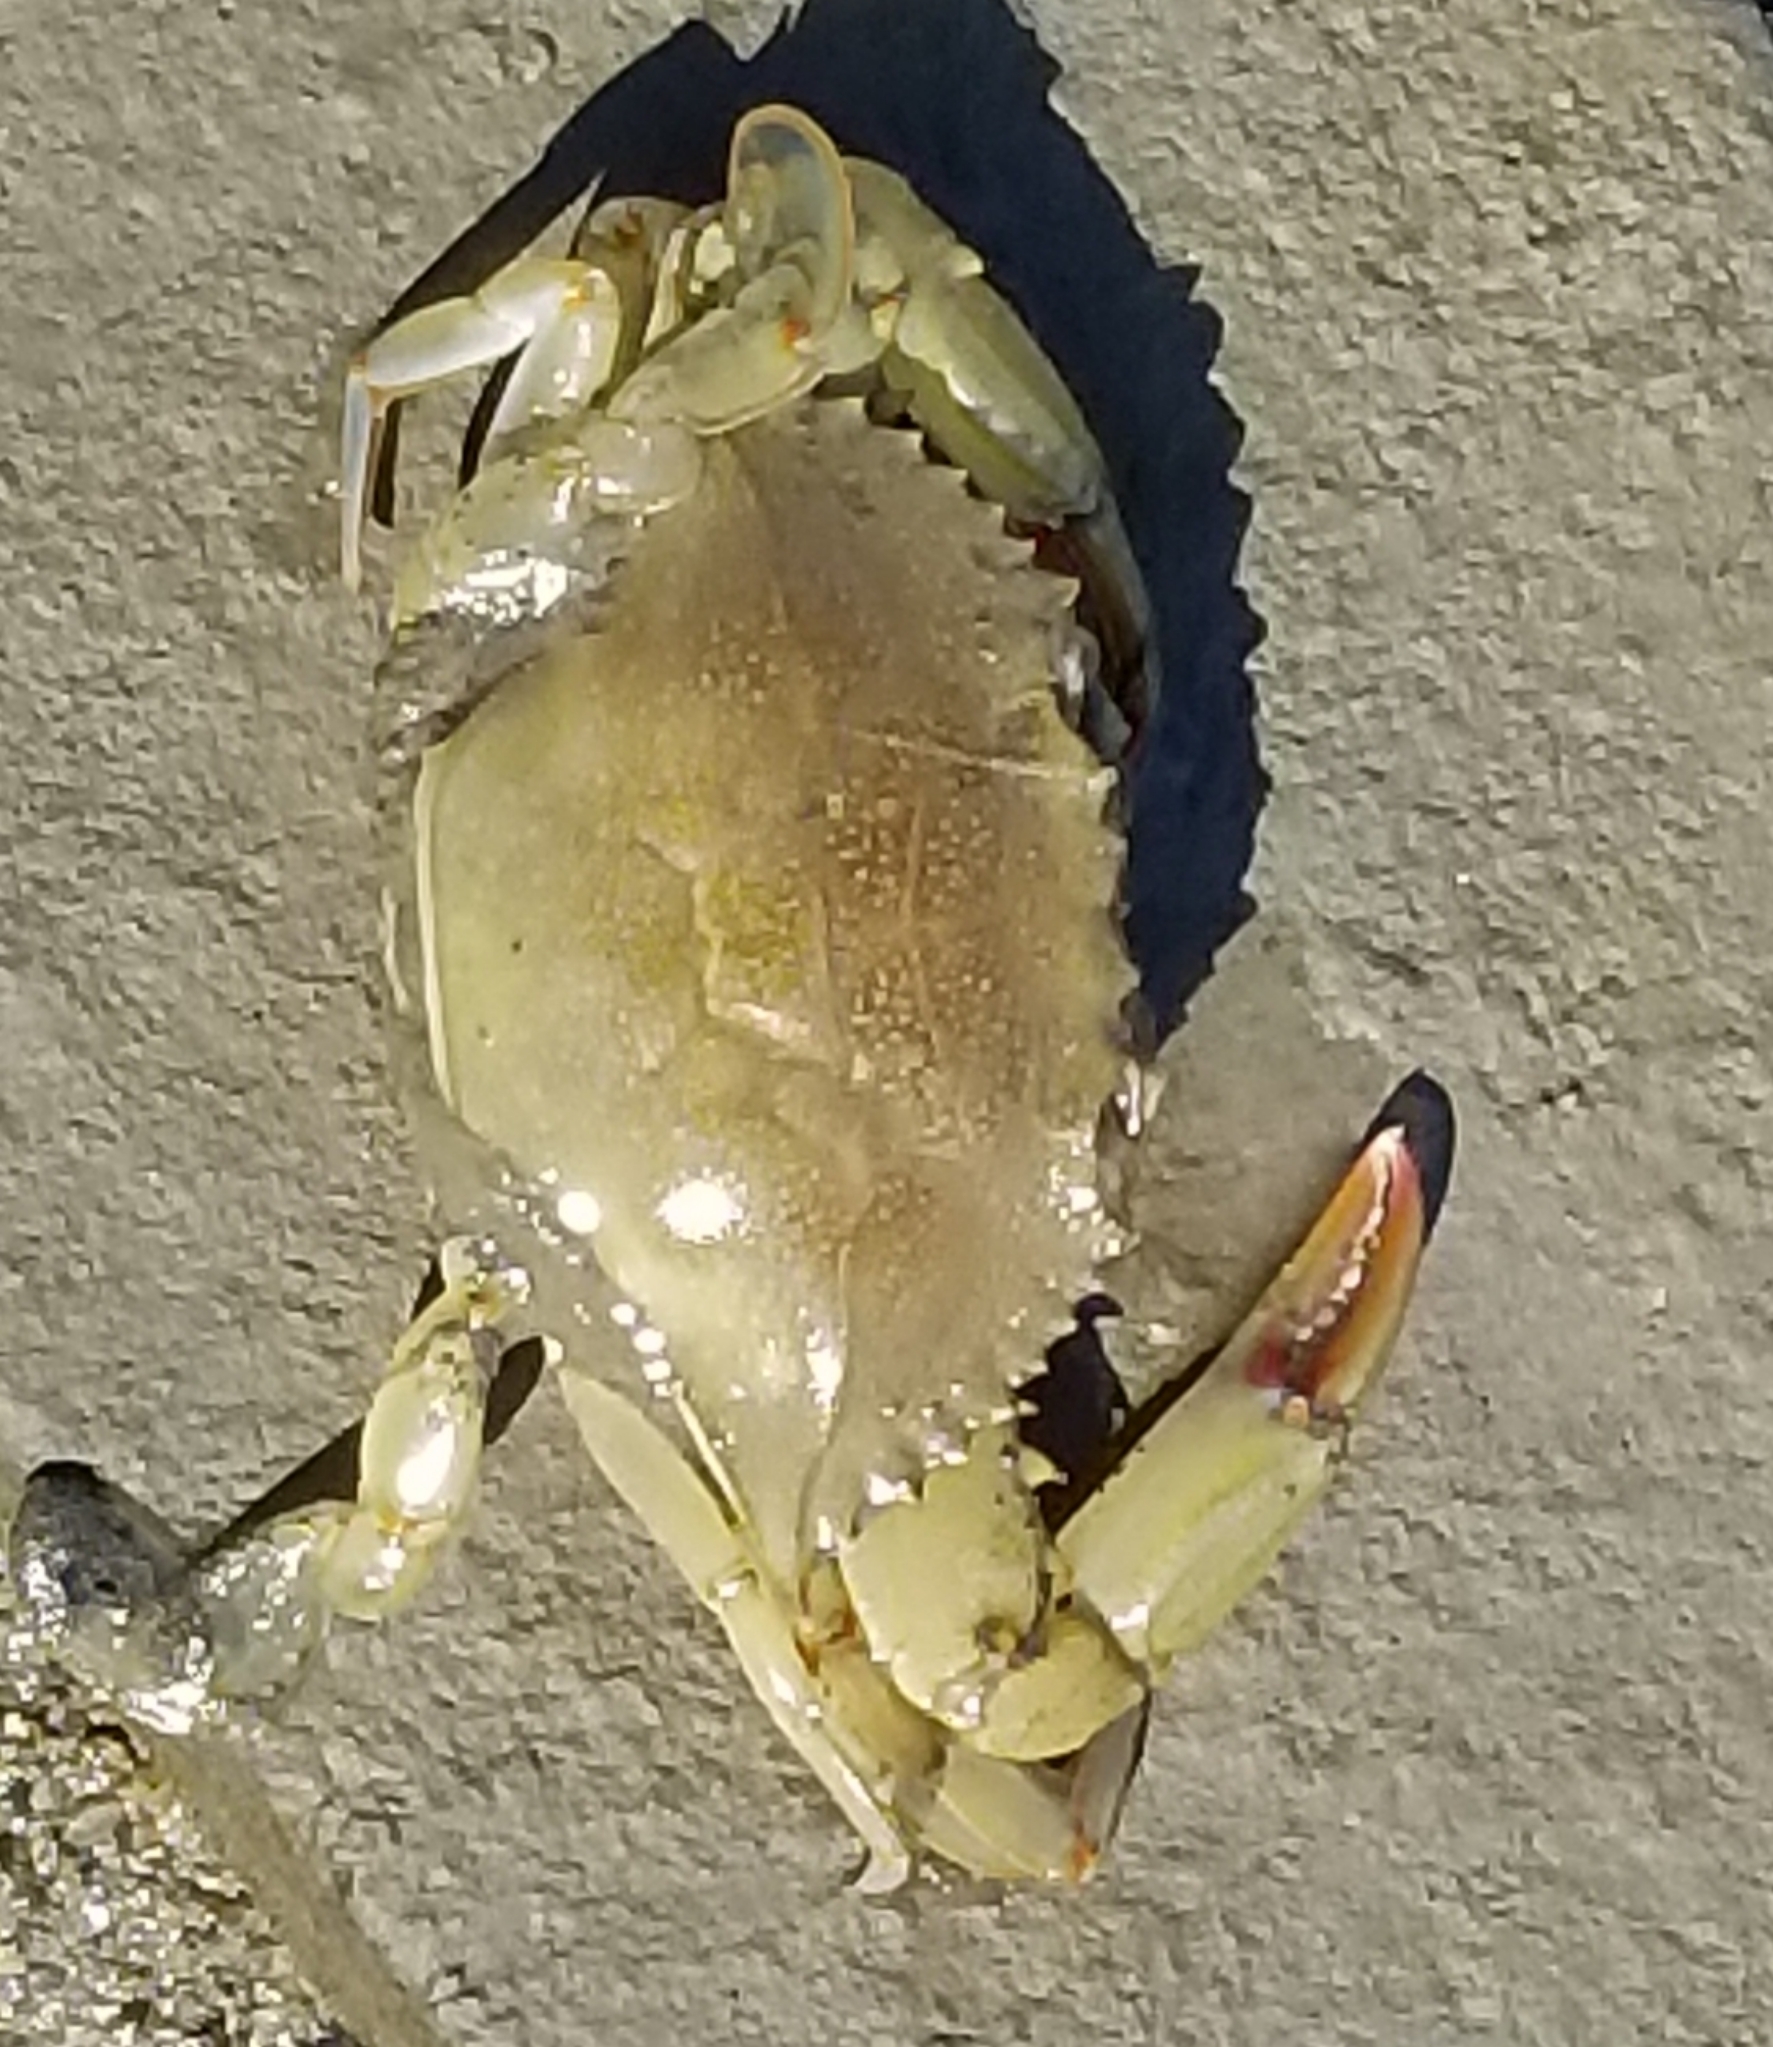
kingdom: Animalia
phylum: Arthropoda
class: Malacostraca
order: Decapoda
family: Portunidae
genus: Callinectes
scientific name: Callinectes sapidus
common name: Blue crab
